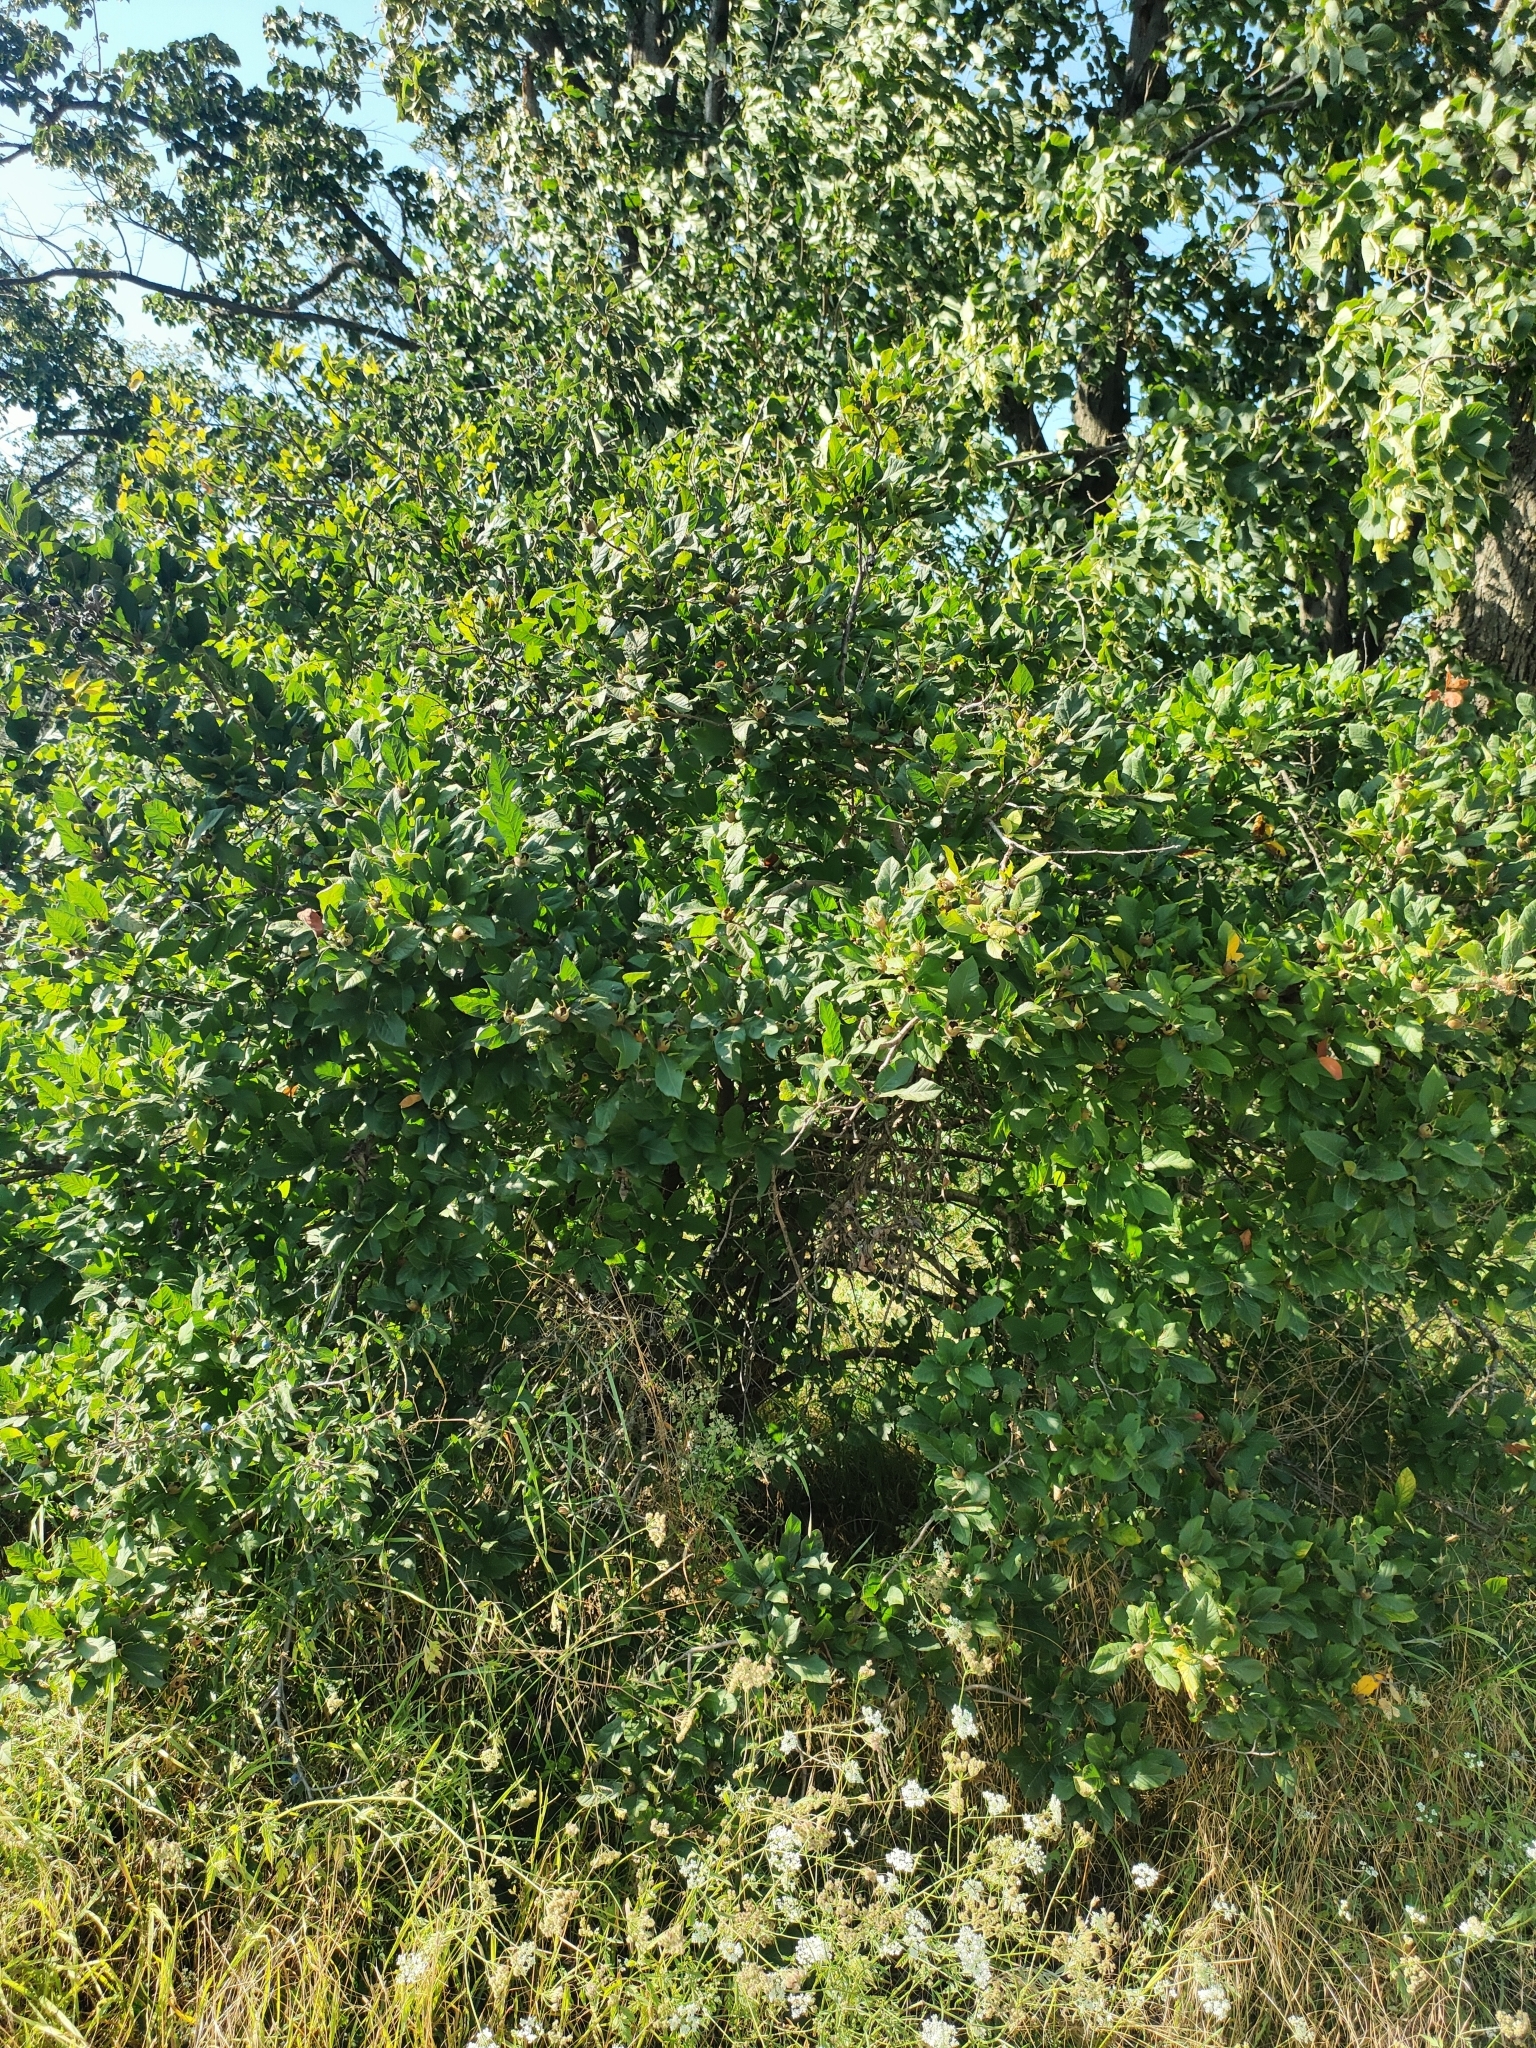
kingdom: Plantae
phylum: Tracheophyta
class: Magnoliopsida
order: Rosales
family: Rosaceae
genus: Mespilus
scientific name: Mespilus germanica
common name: Medlar
